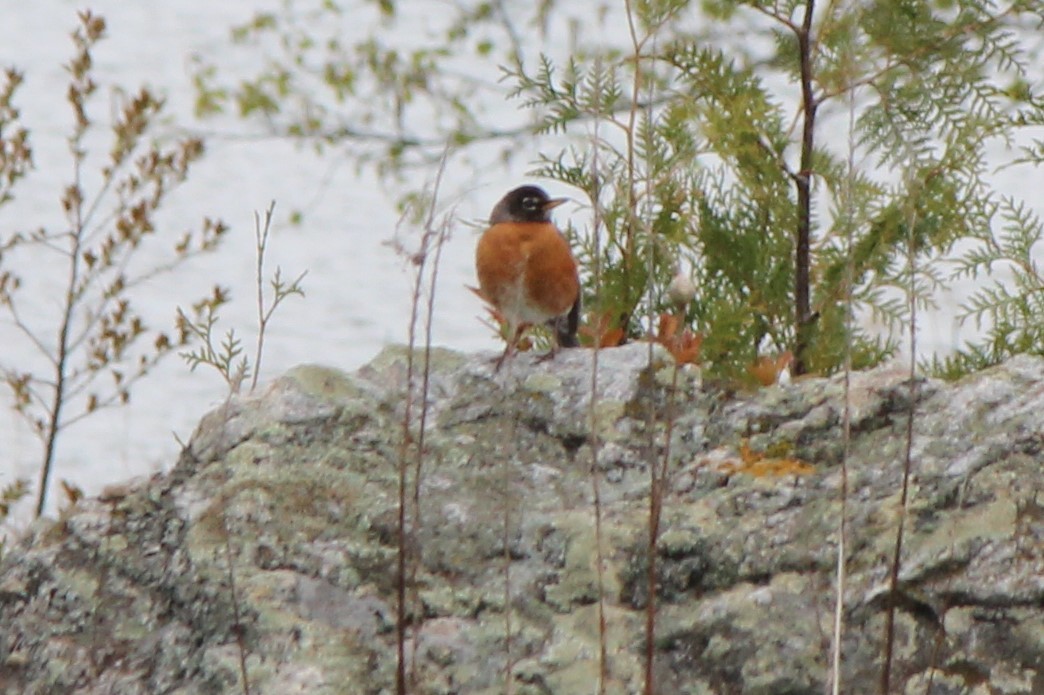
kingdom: Animalia
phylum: Chordata
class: Aves
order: Passeriformes
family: Turdidae
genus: Turdus
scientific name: Turdus migratorius
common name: American robin
